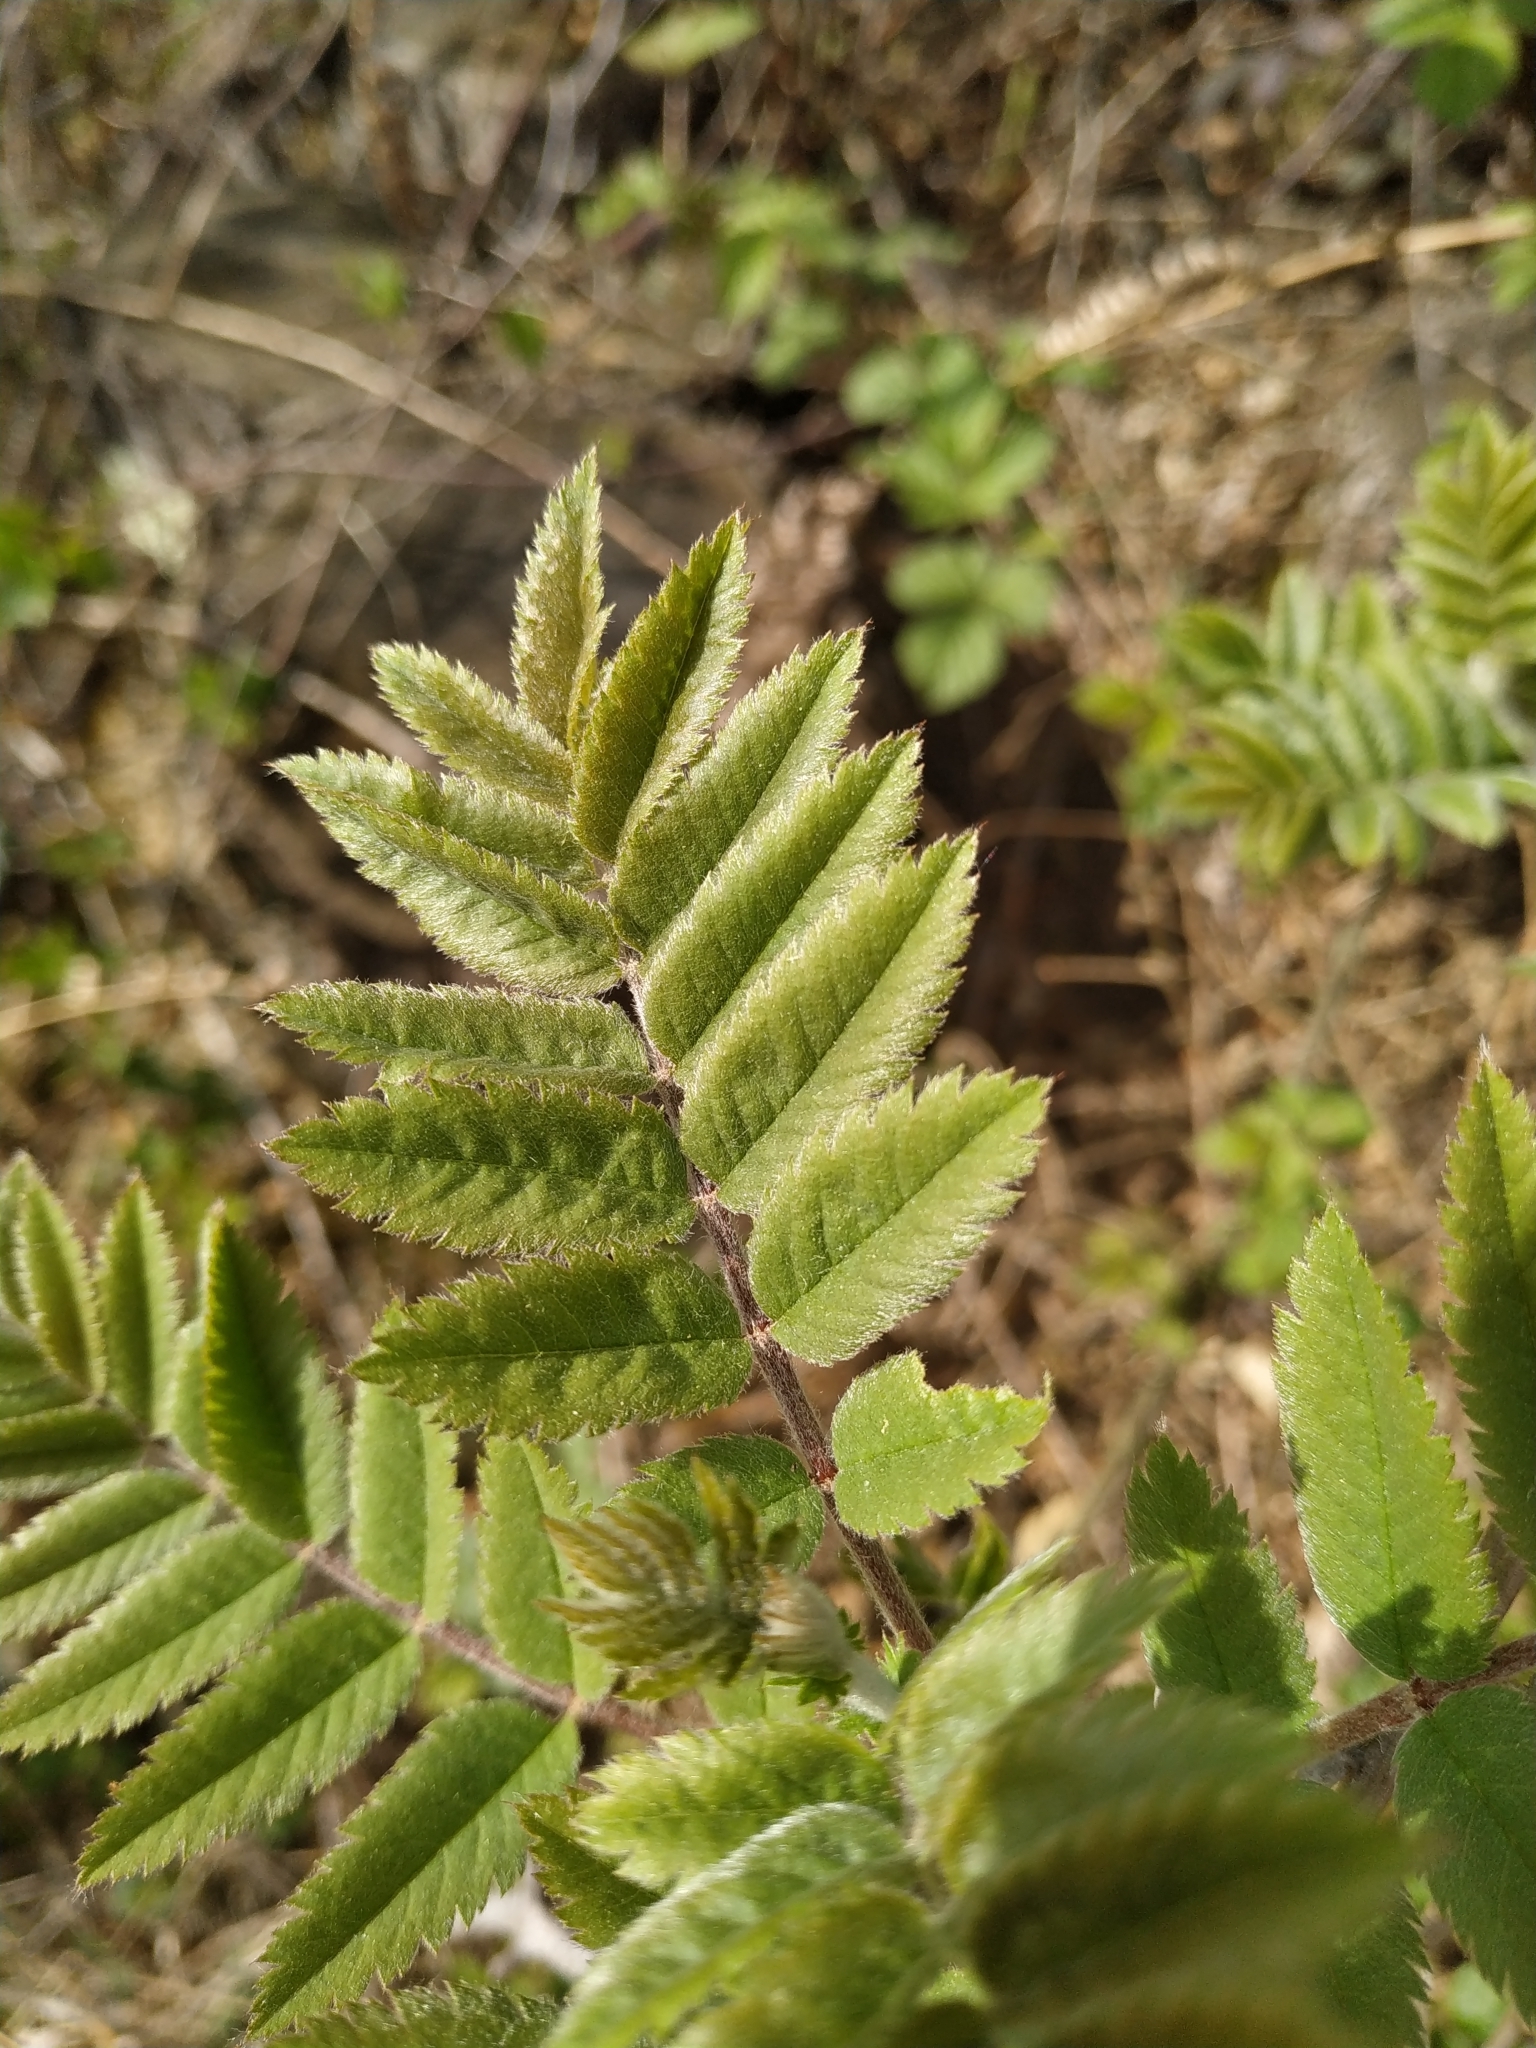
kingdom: Plantae
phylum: Tracheophyta
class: Magnoliopsida
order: Rosales
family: Rosaceae
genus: Sorbus
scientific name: Sorbus aucuparia
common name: Rowan
